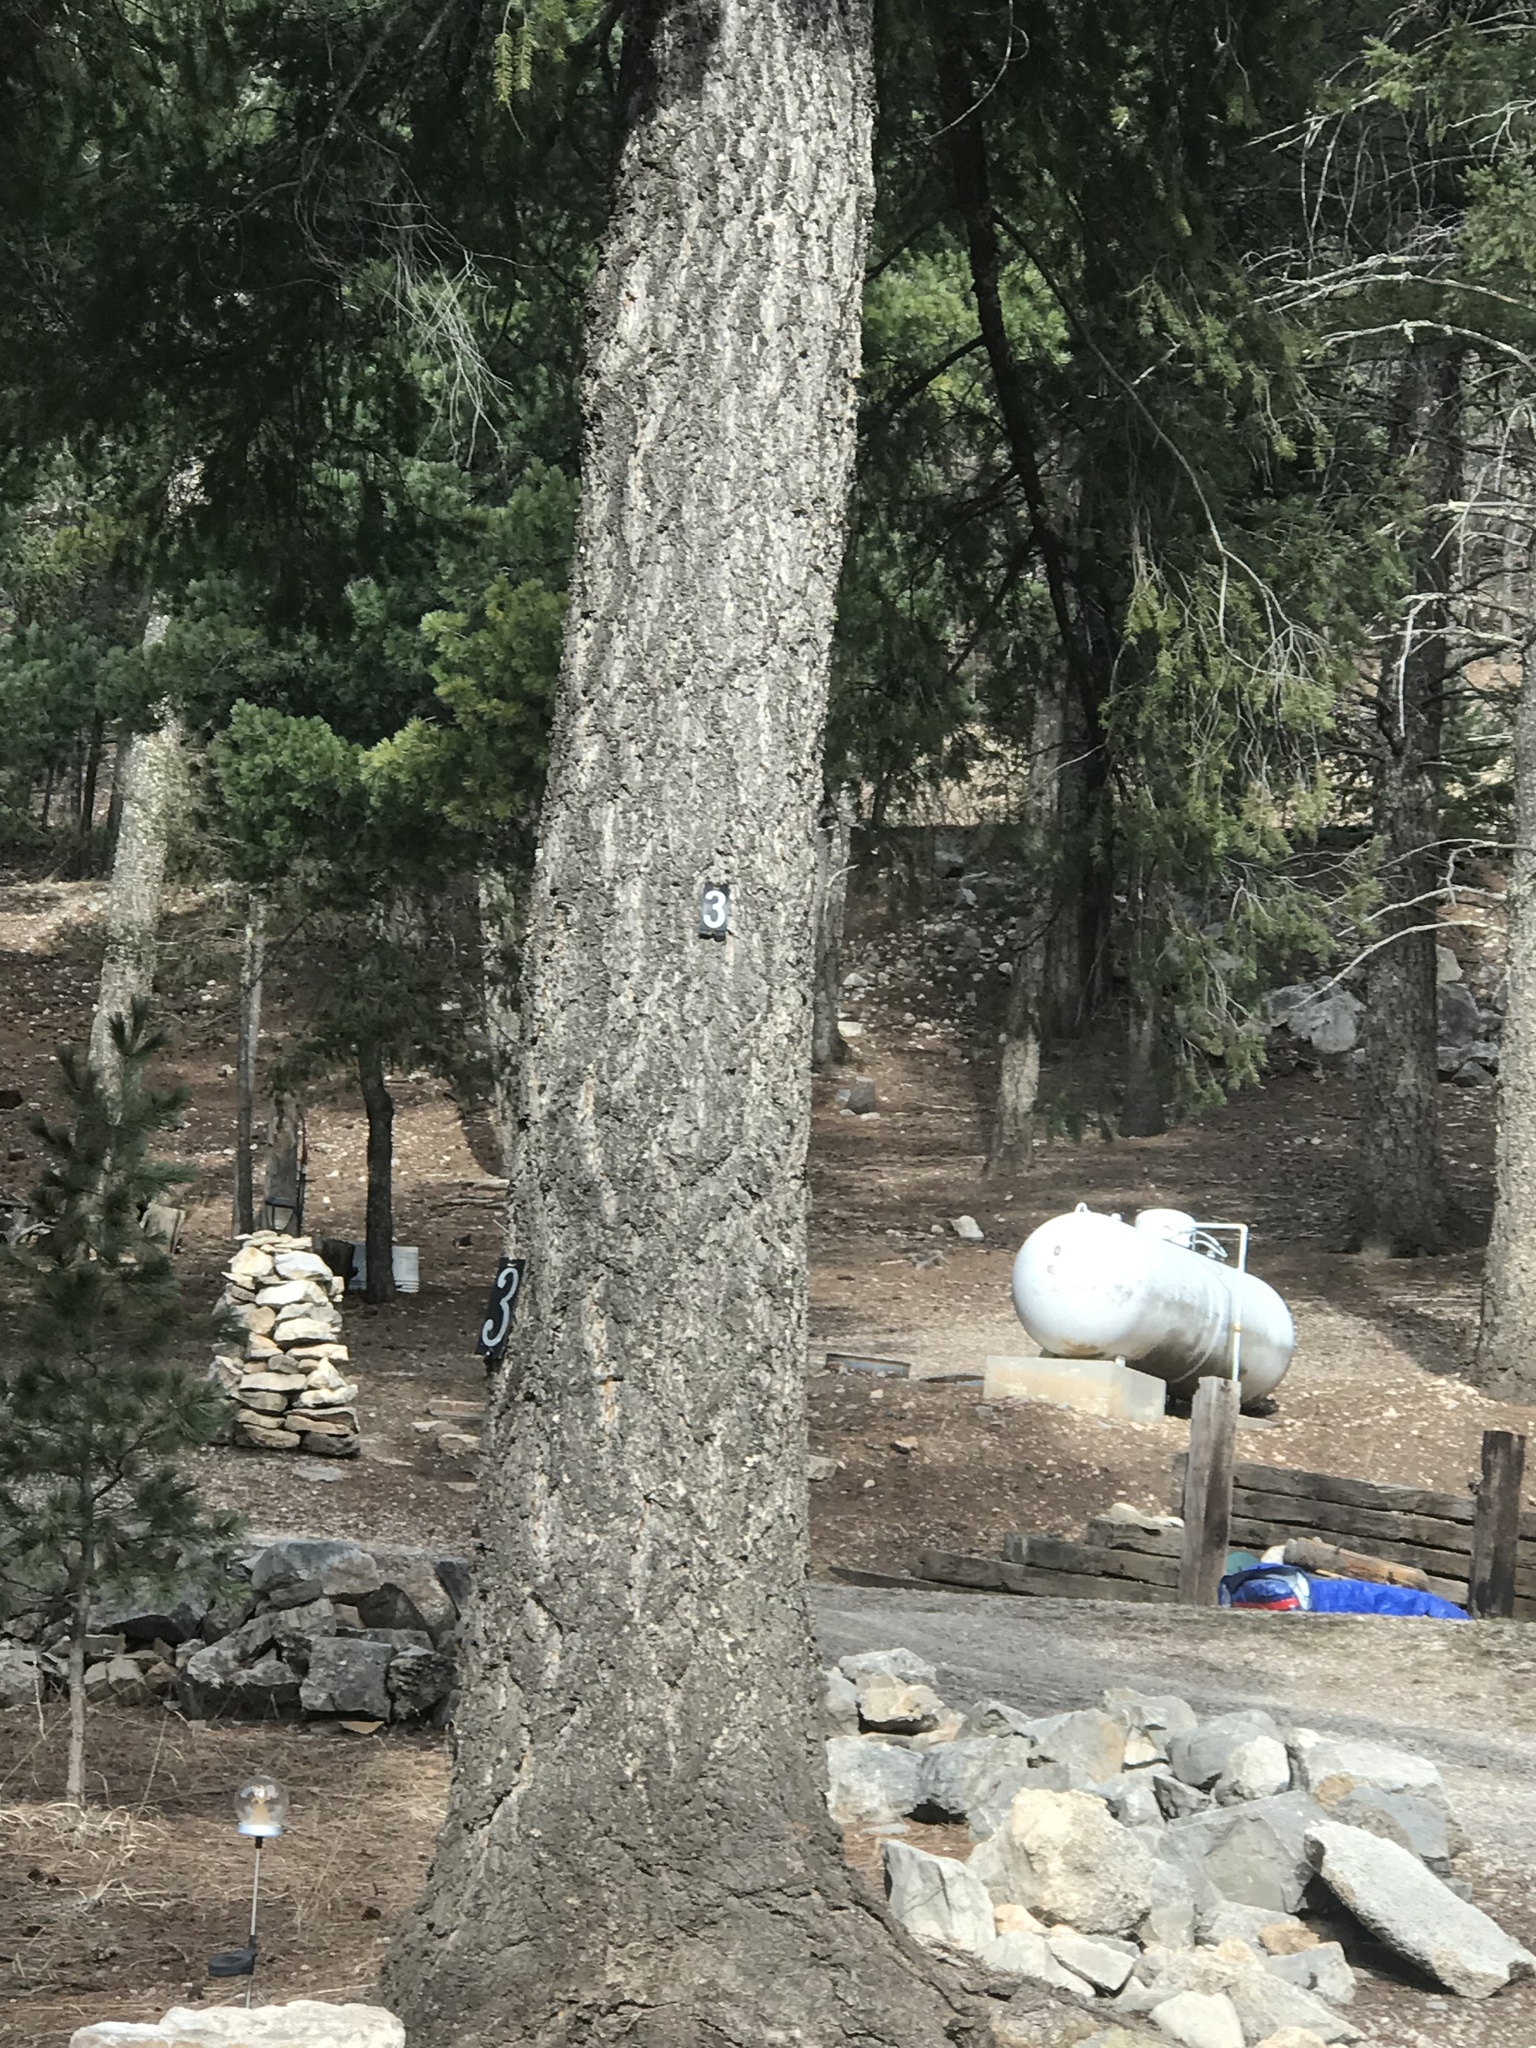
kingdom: Plantae
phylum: Tracheophyta
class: Pinopsida
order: Pinales
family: Pinaceae
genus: Pseudotsuga
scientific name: Pseudotsuga menziesii
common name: Douglas fir
